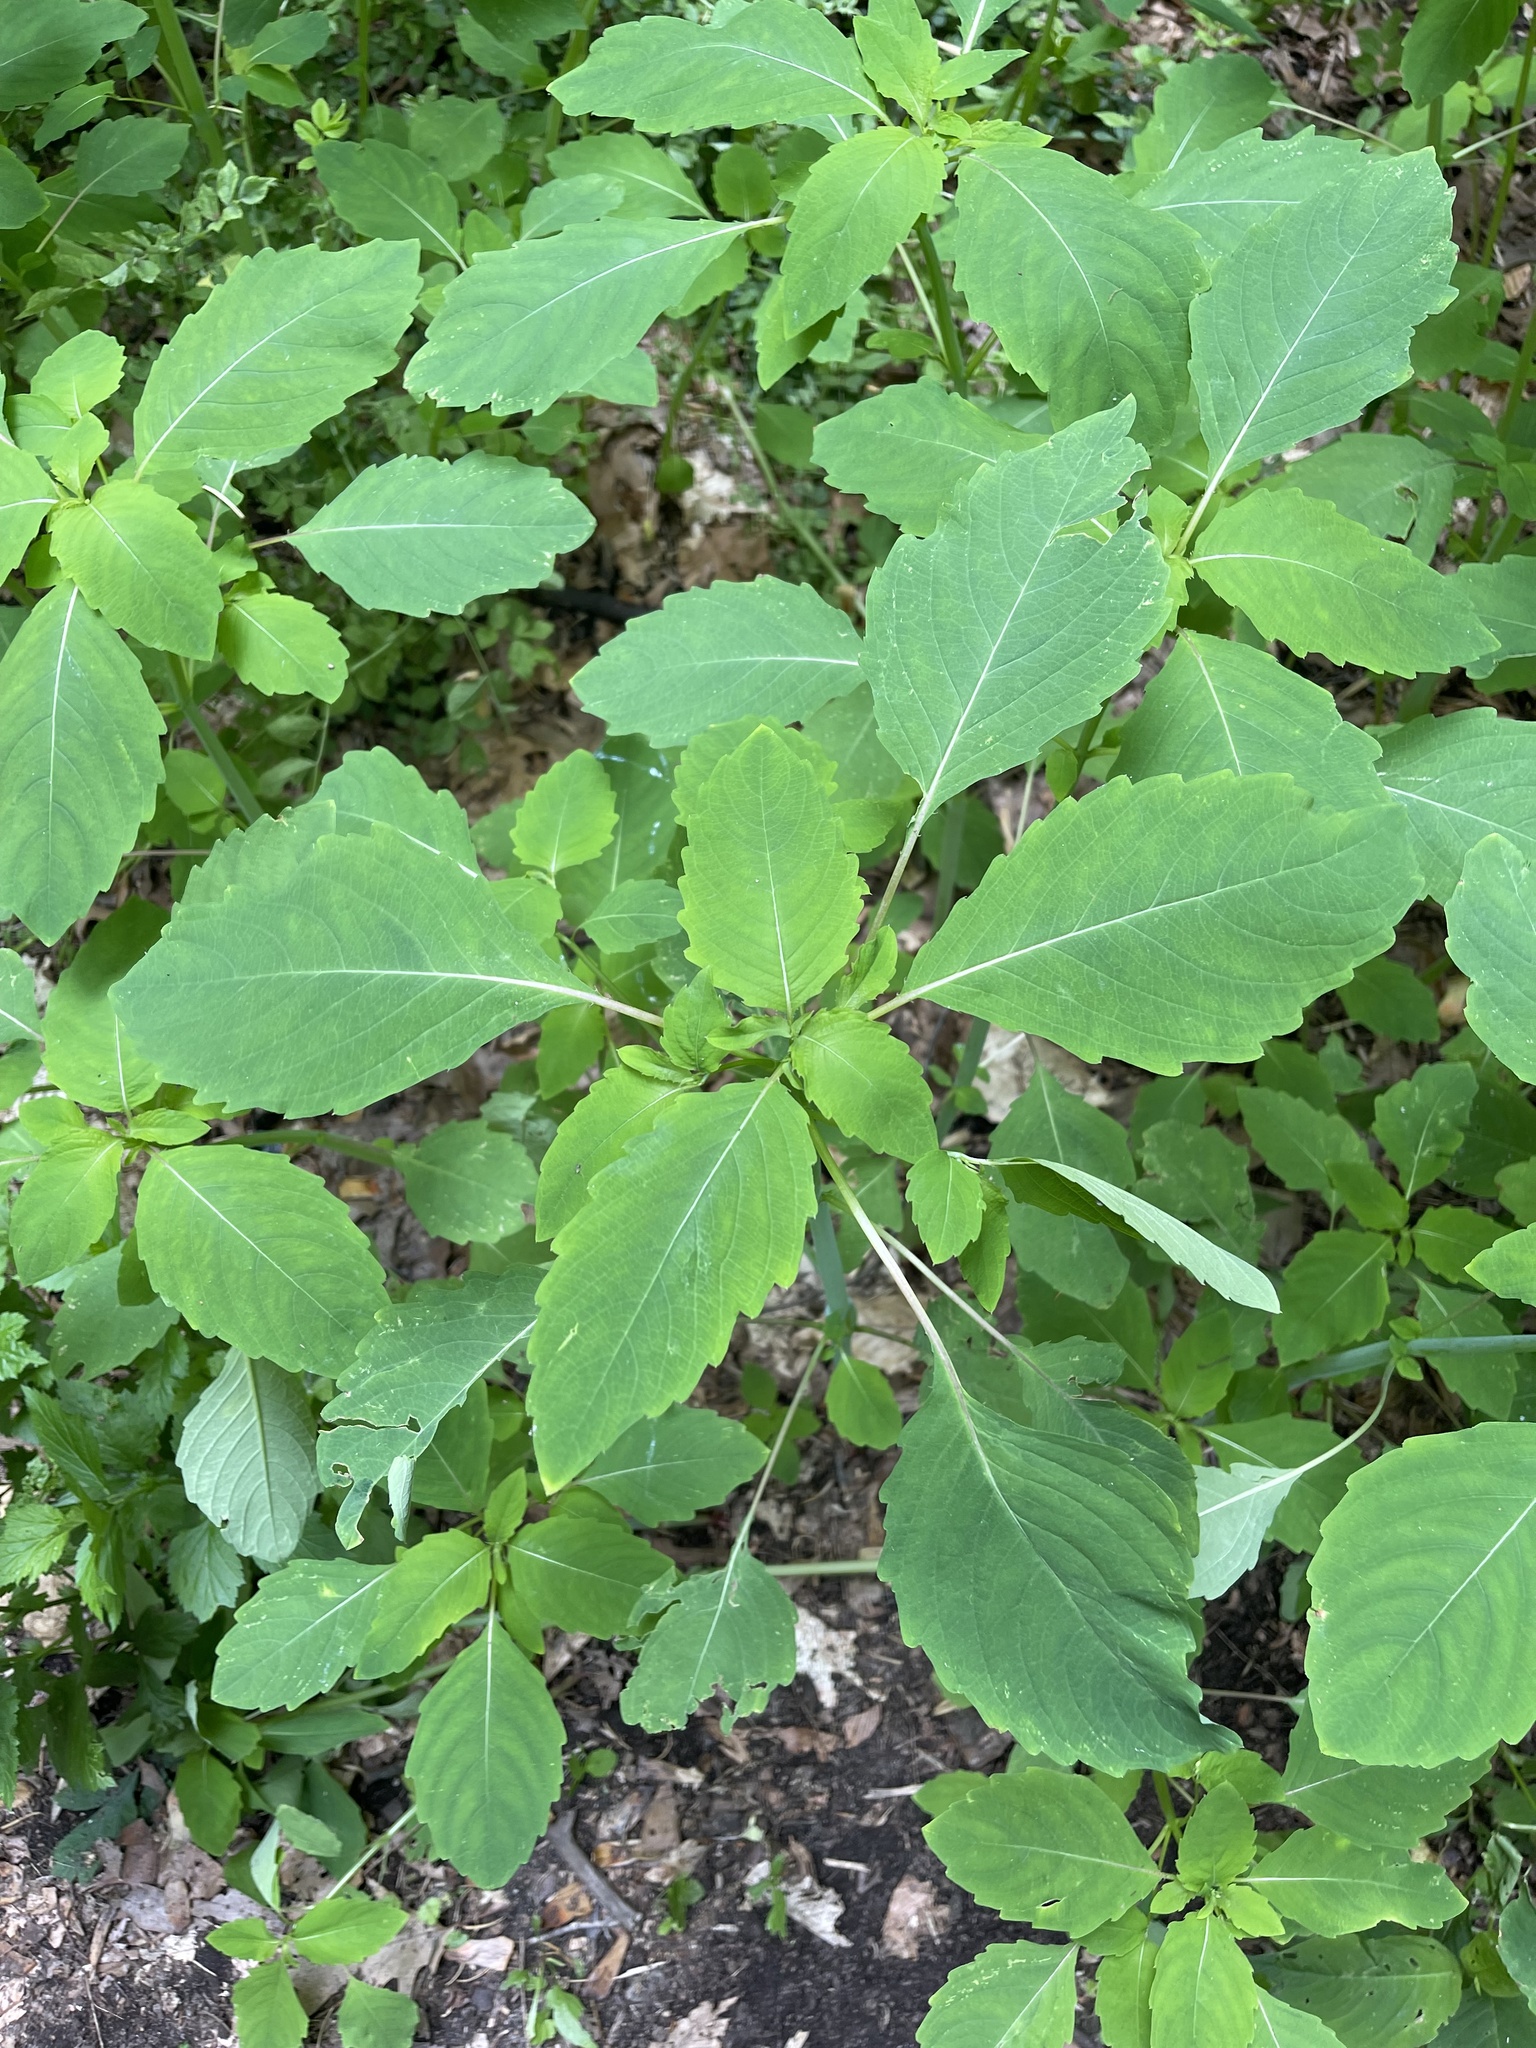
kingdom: Plantae
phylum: Tracheophyta
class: Magnoliopsida
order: Ericales
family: Balsaminaceae
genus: Impatiens
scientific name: Impatiens
